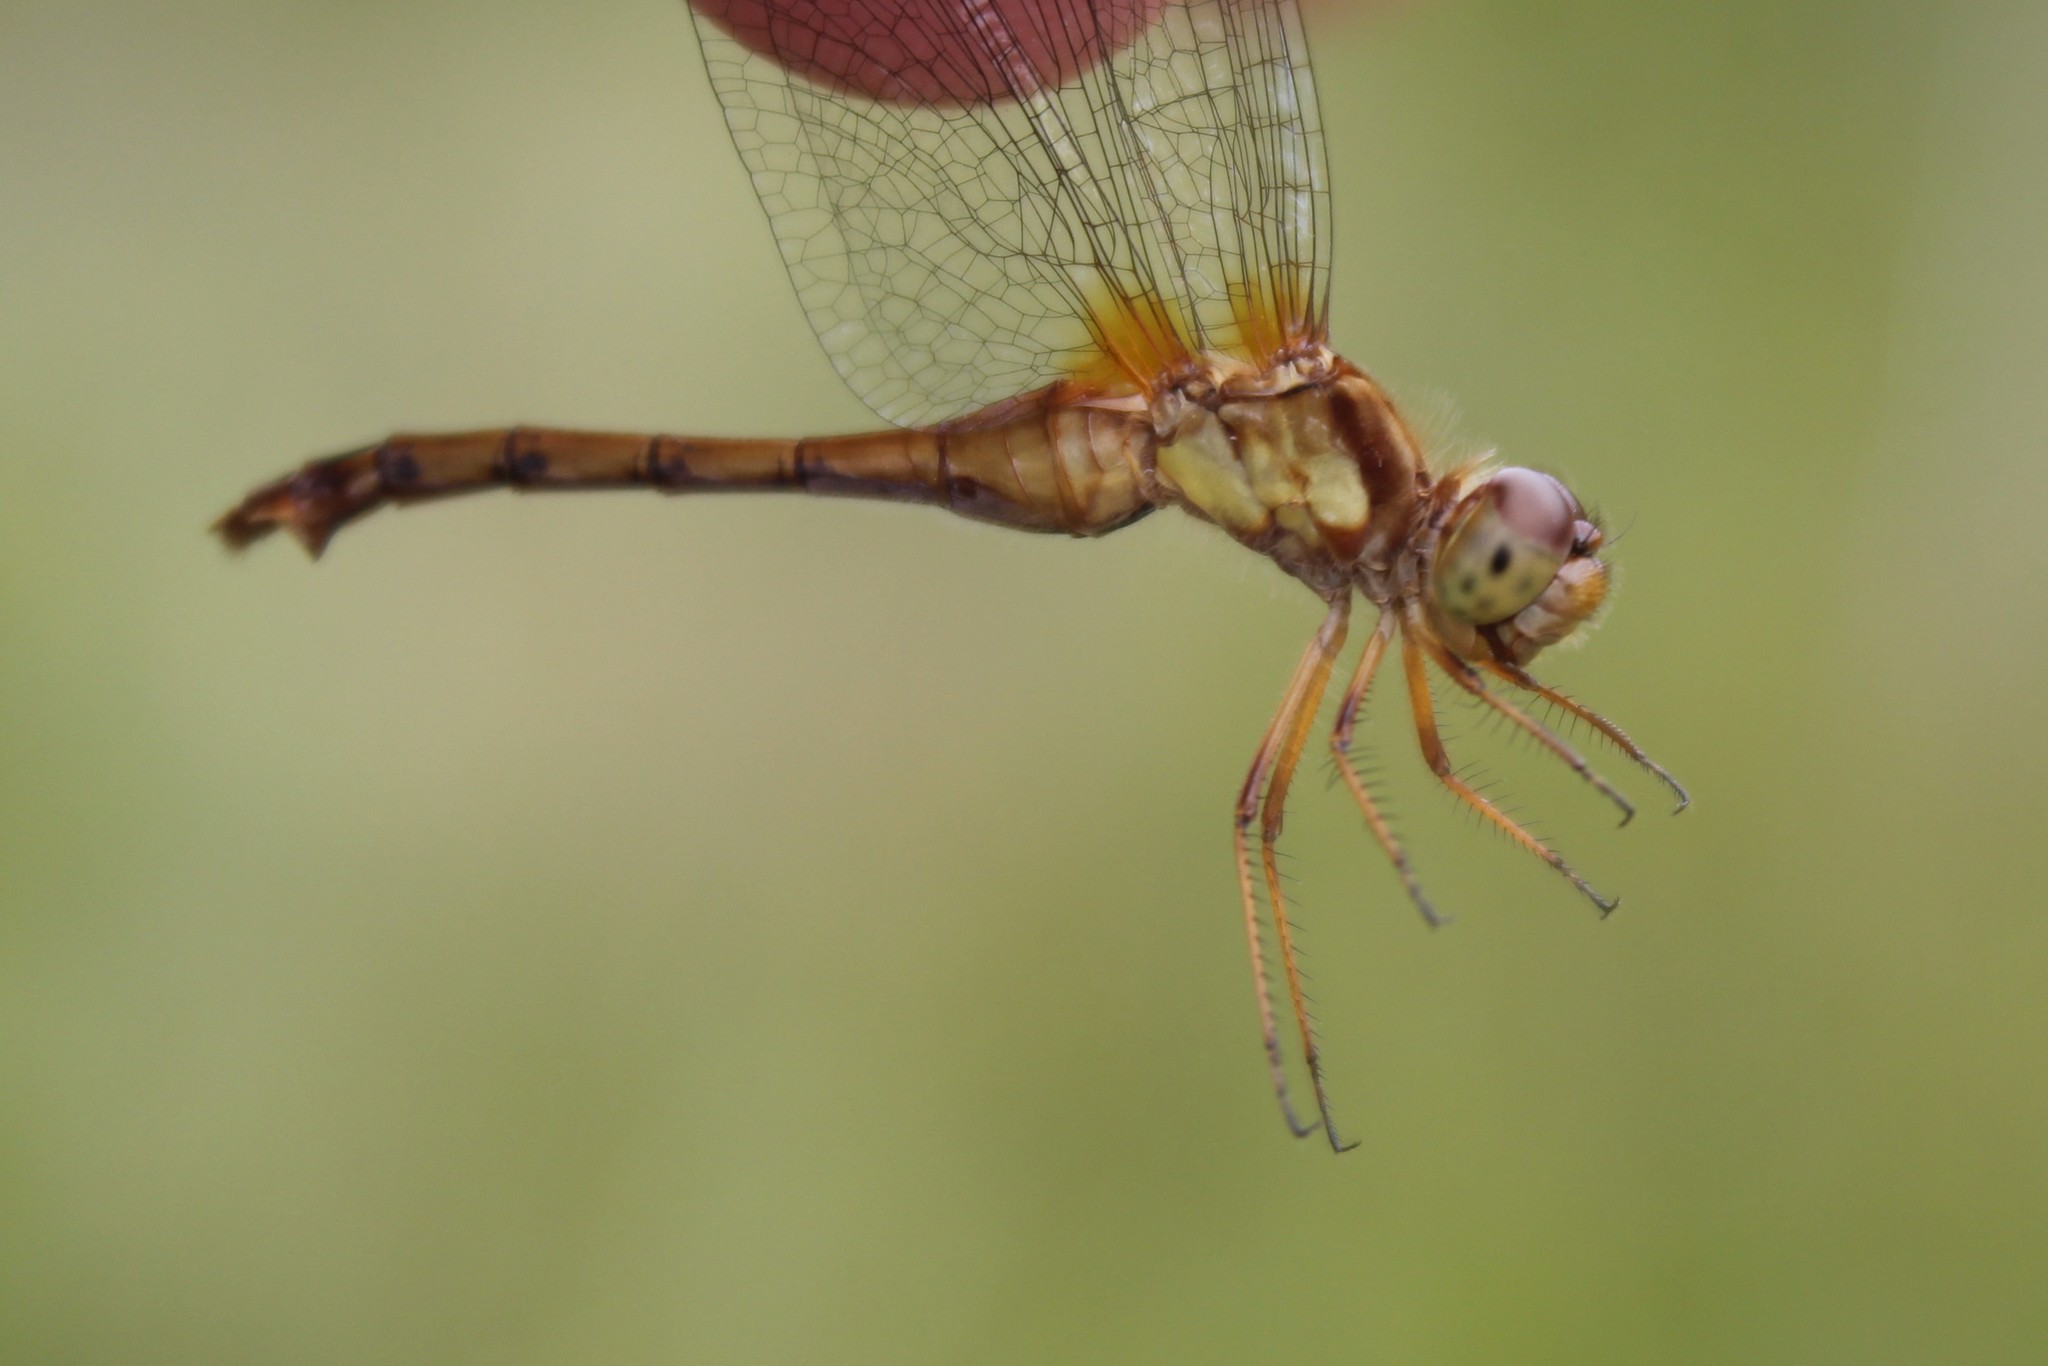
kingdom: Animalia
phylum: Arthropoda
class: Insecta
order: Odonata
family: Libellulidae
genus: Sympetrum
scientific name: Sympetrum vicinum
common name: Autumn meadowhawk
